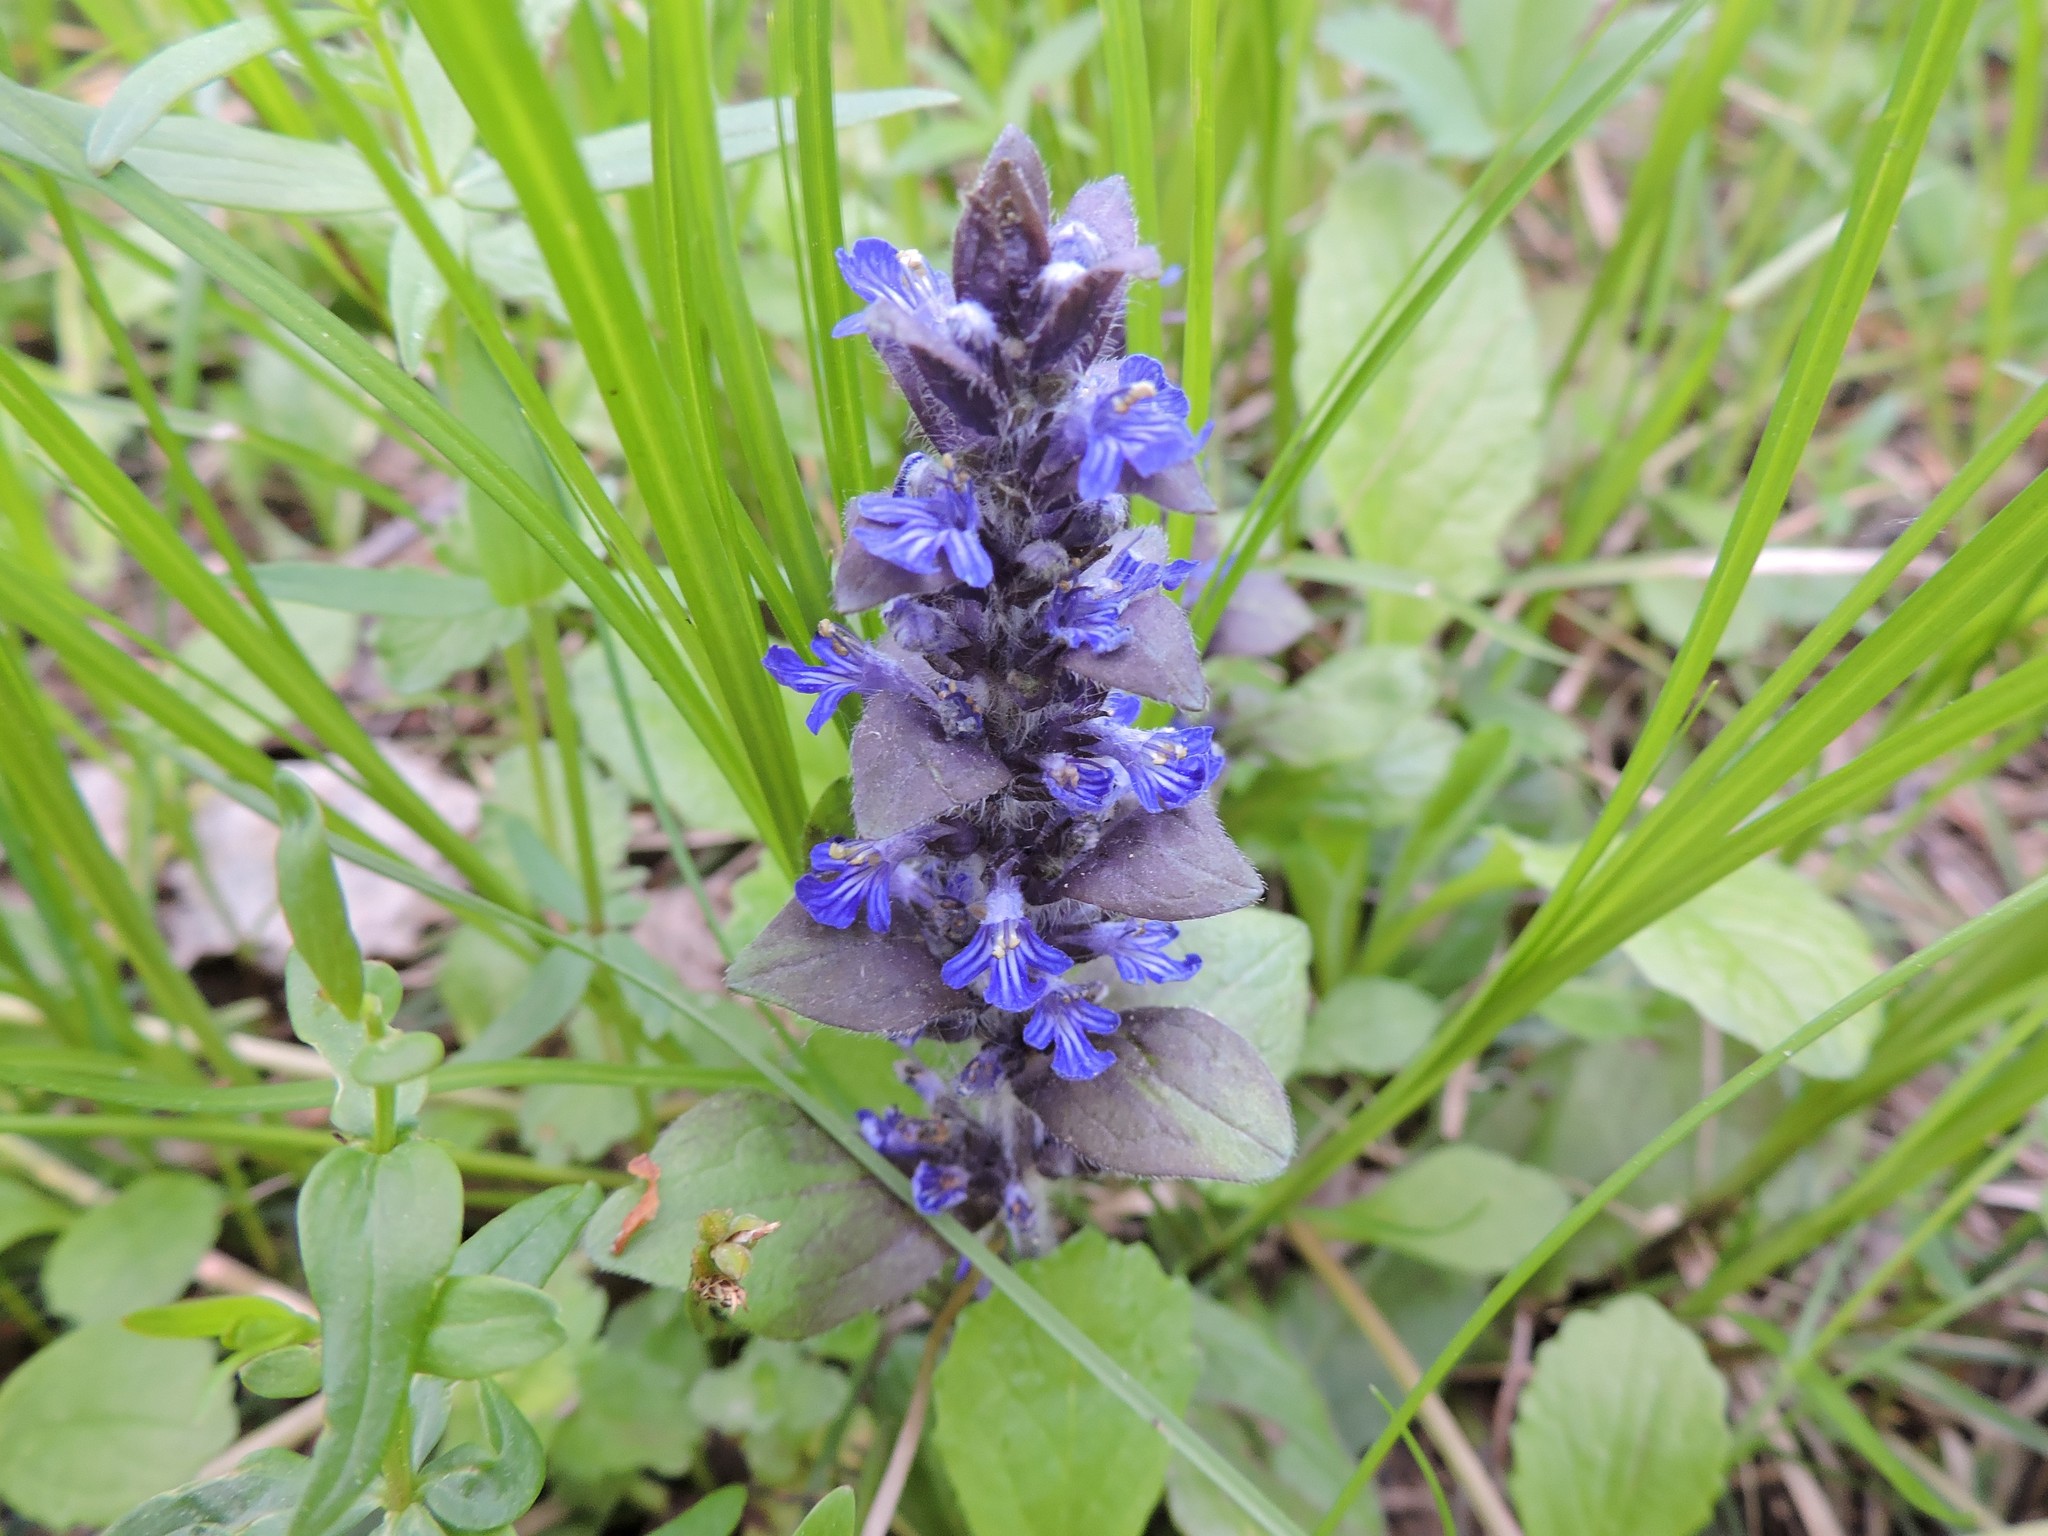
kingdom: Plantae
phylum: Tracheophyta
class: Magnoliopsida
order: Lamiales
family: Lamiaceae
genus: Ajuga
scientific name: Ajuga reptans
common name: Bugle
